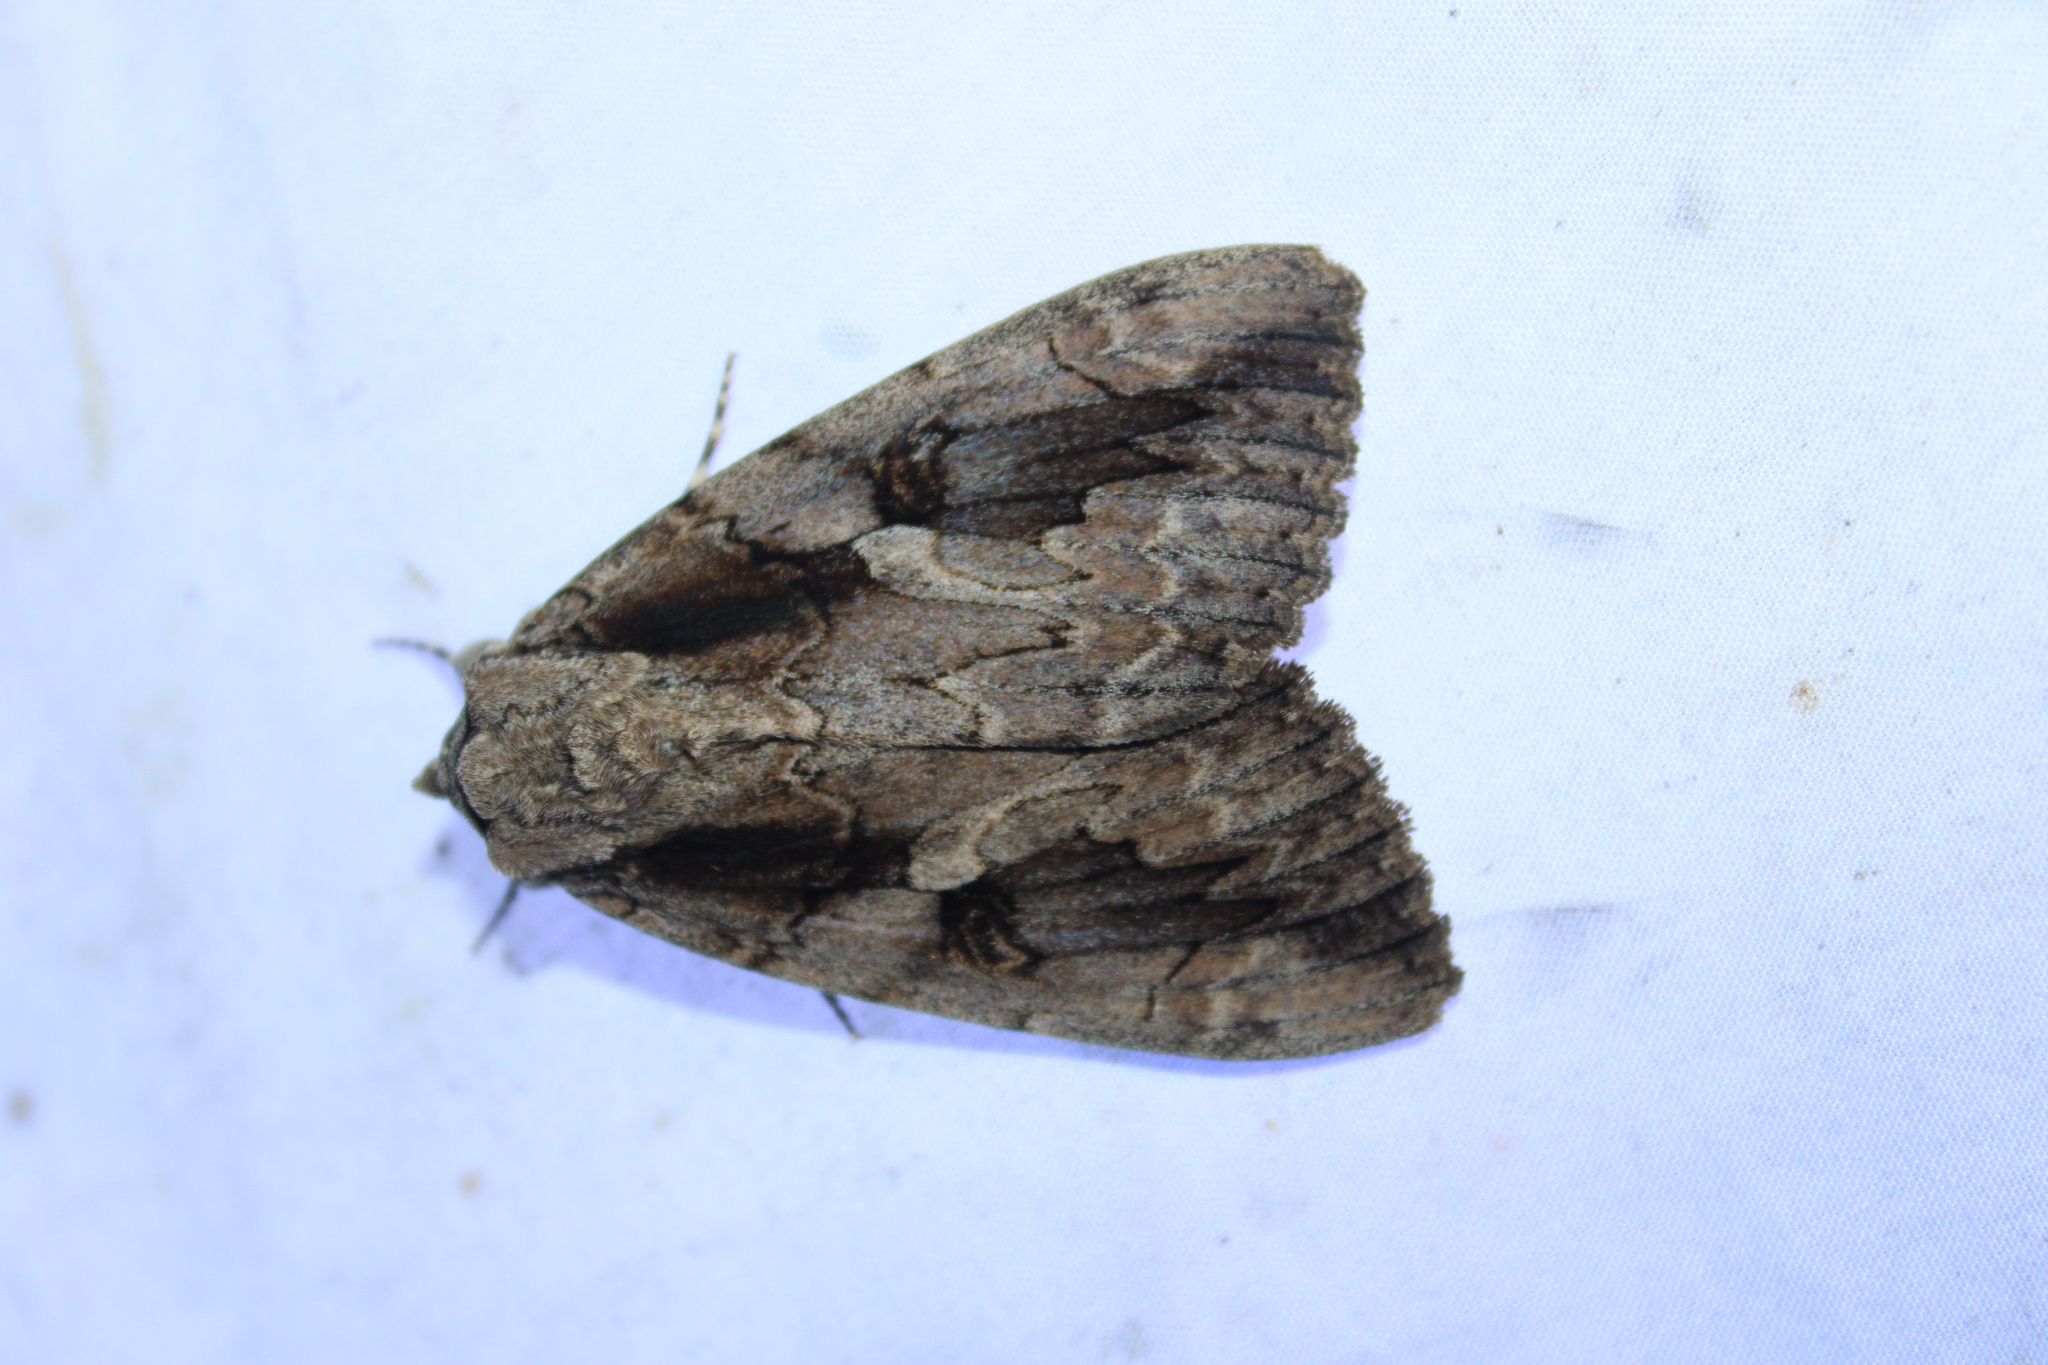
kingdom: Animalia
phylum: Arthropoda
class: Insecta
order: Lepidoptera
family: Erebidae
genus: Catocala
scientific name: Catocala amatrix
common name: Sweetheart underwing
